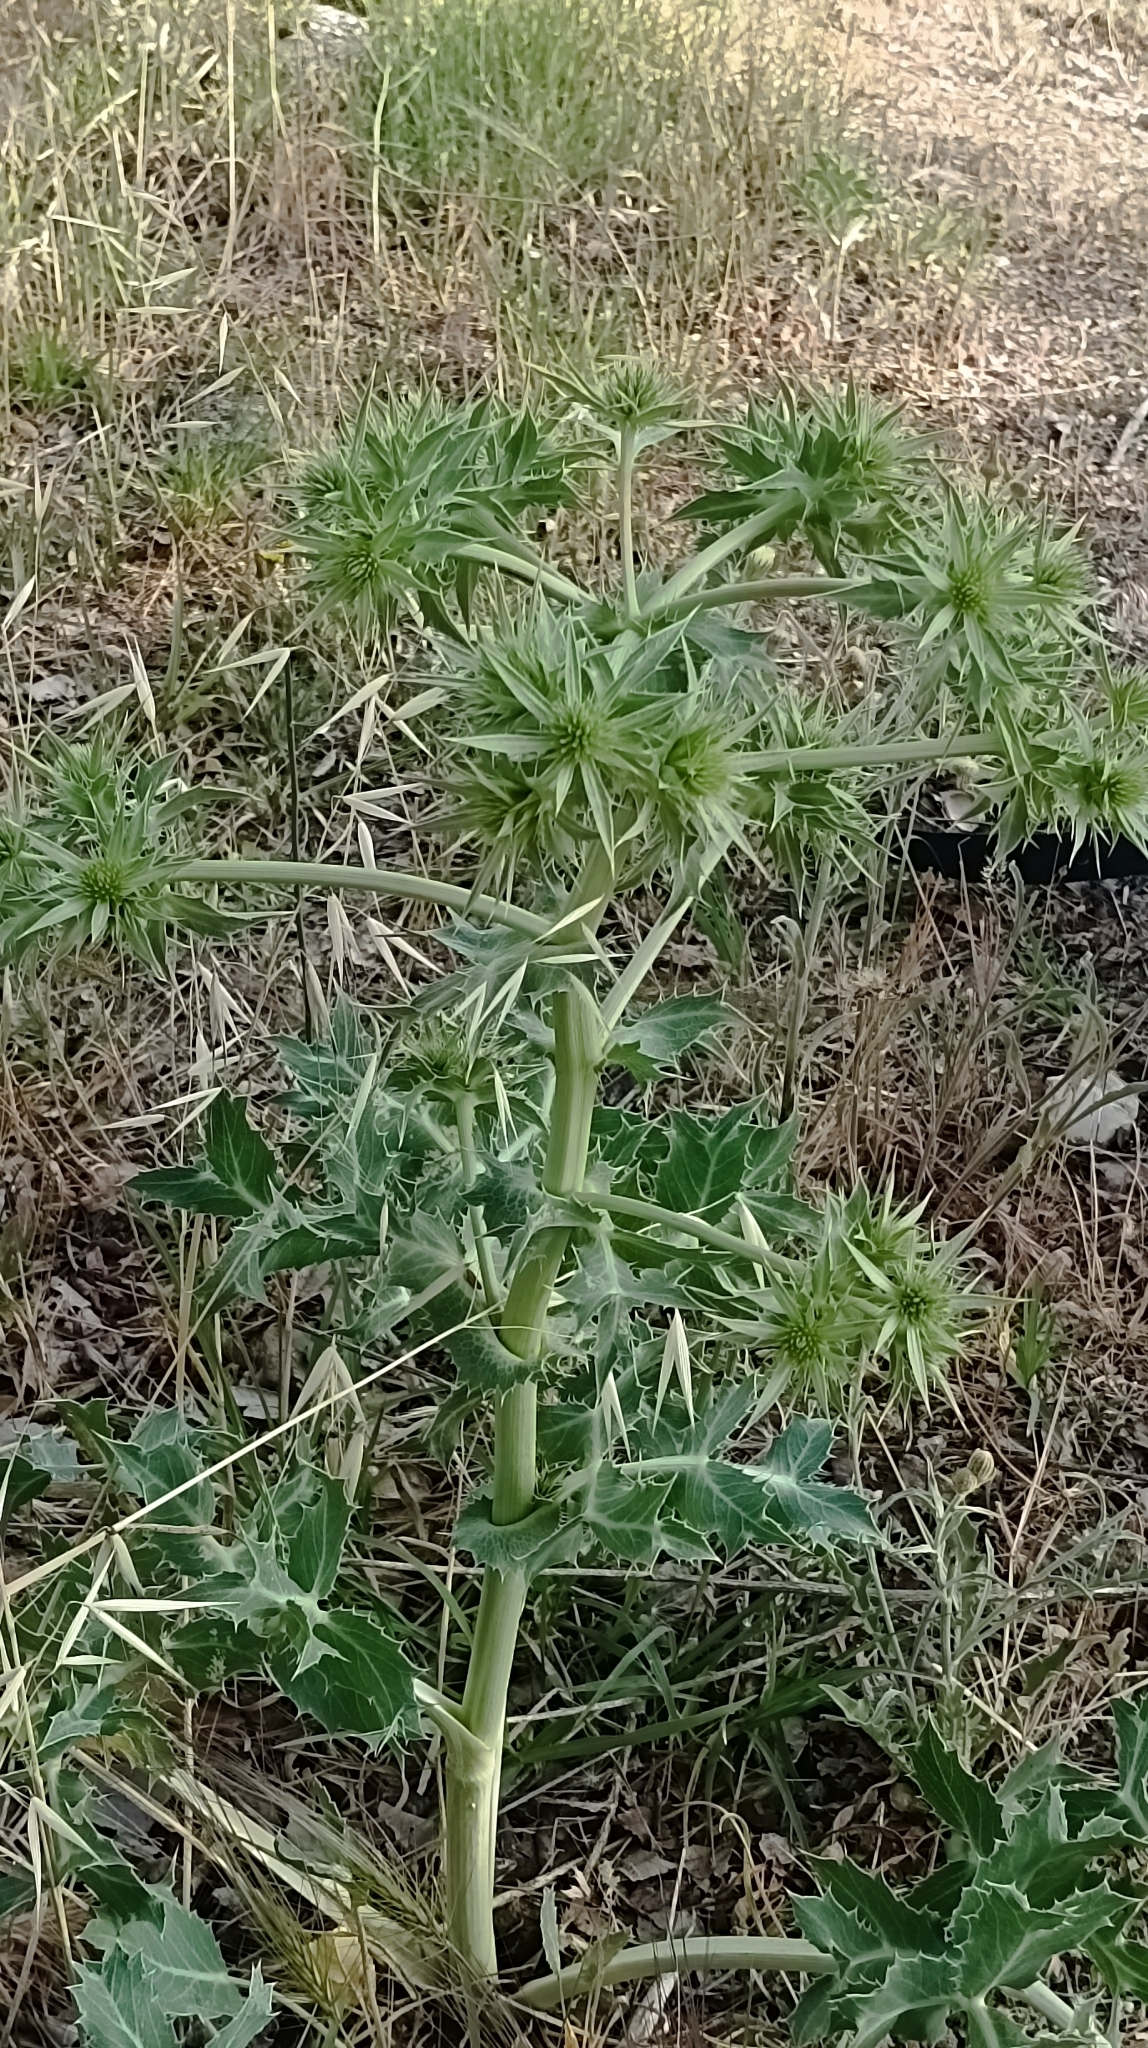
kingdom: Plantae
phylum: Tracheophyta
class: Magnoliopsida
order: Apiales
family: Apiaceae
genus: Eryngium
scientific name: Eryngium campestre
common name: Field eryngo
